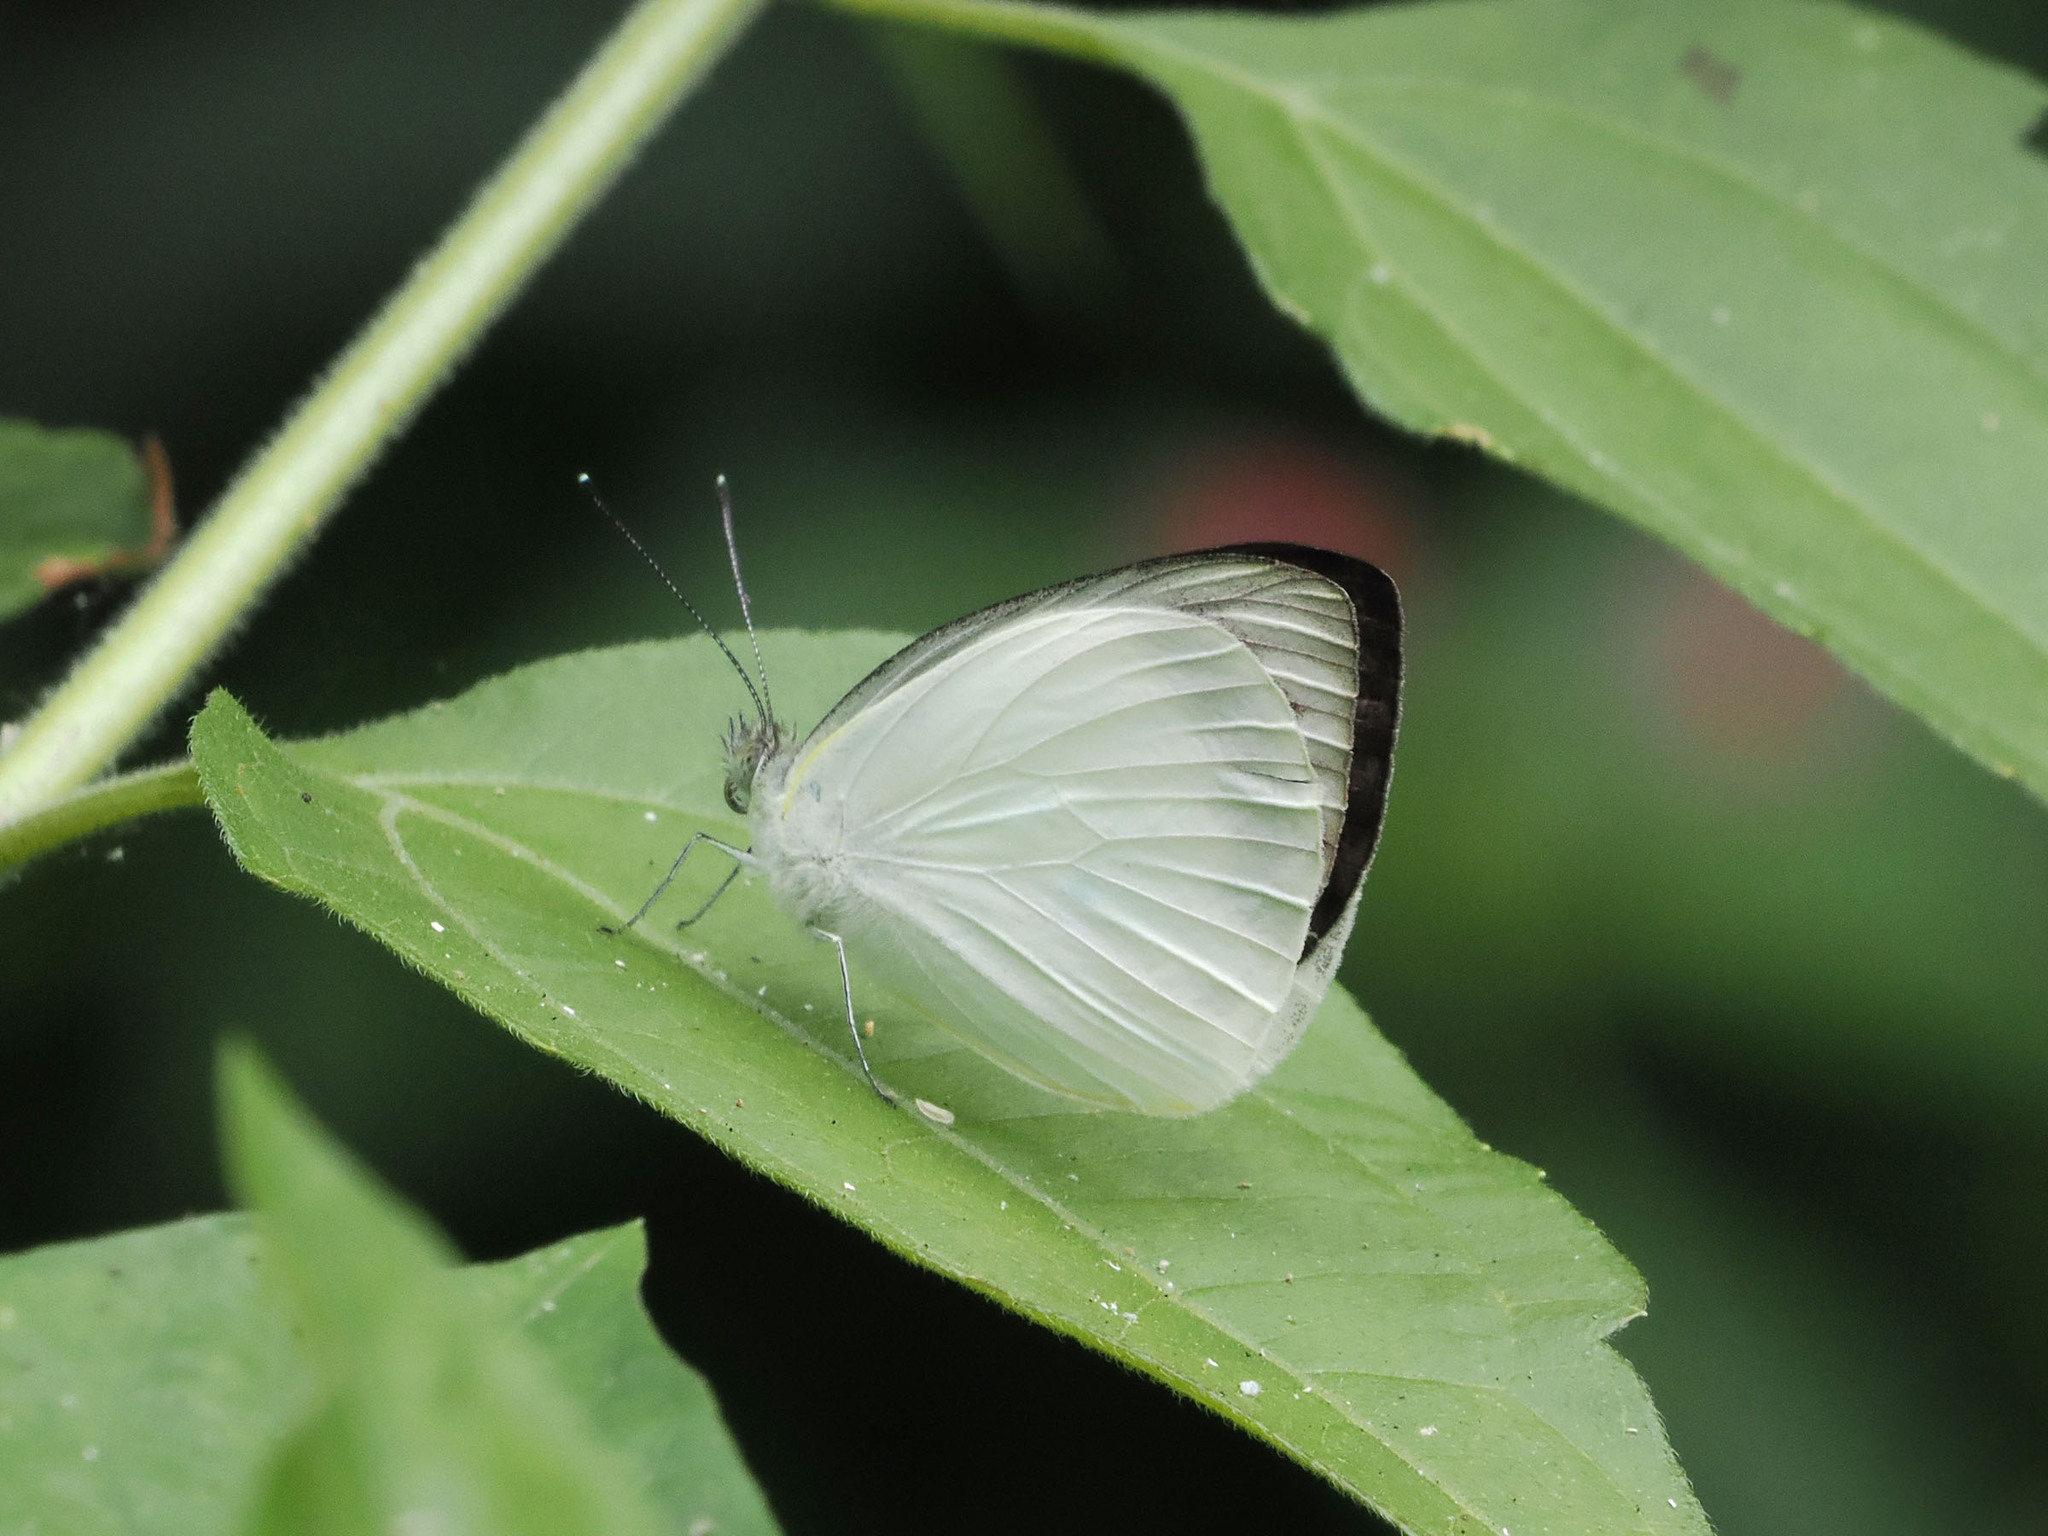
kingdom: Animalia
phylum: Arthropoda
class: Insecta
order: Lepidoptera
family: Pieridae
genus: Appias
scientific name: Appias aegis
